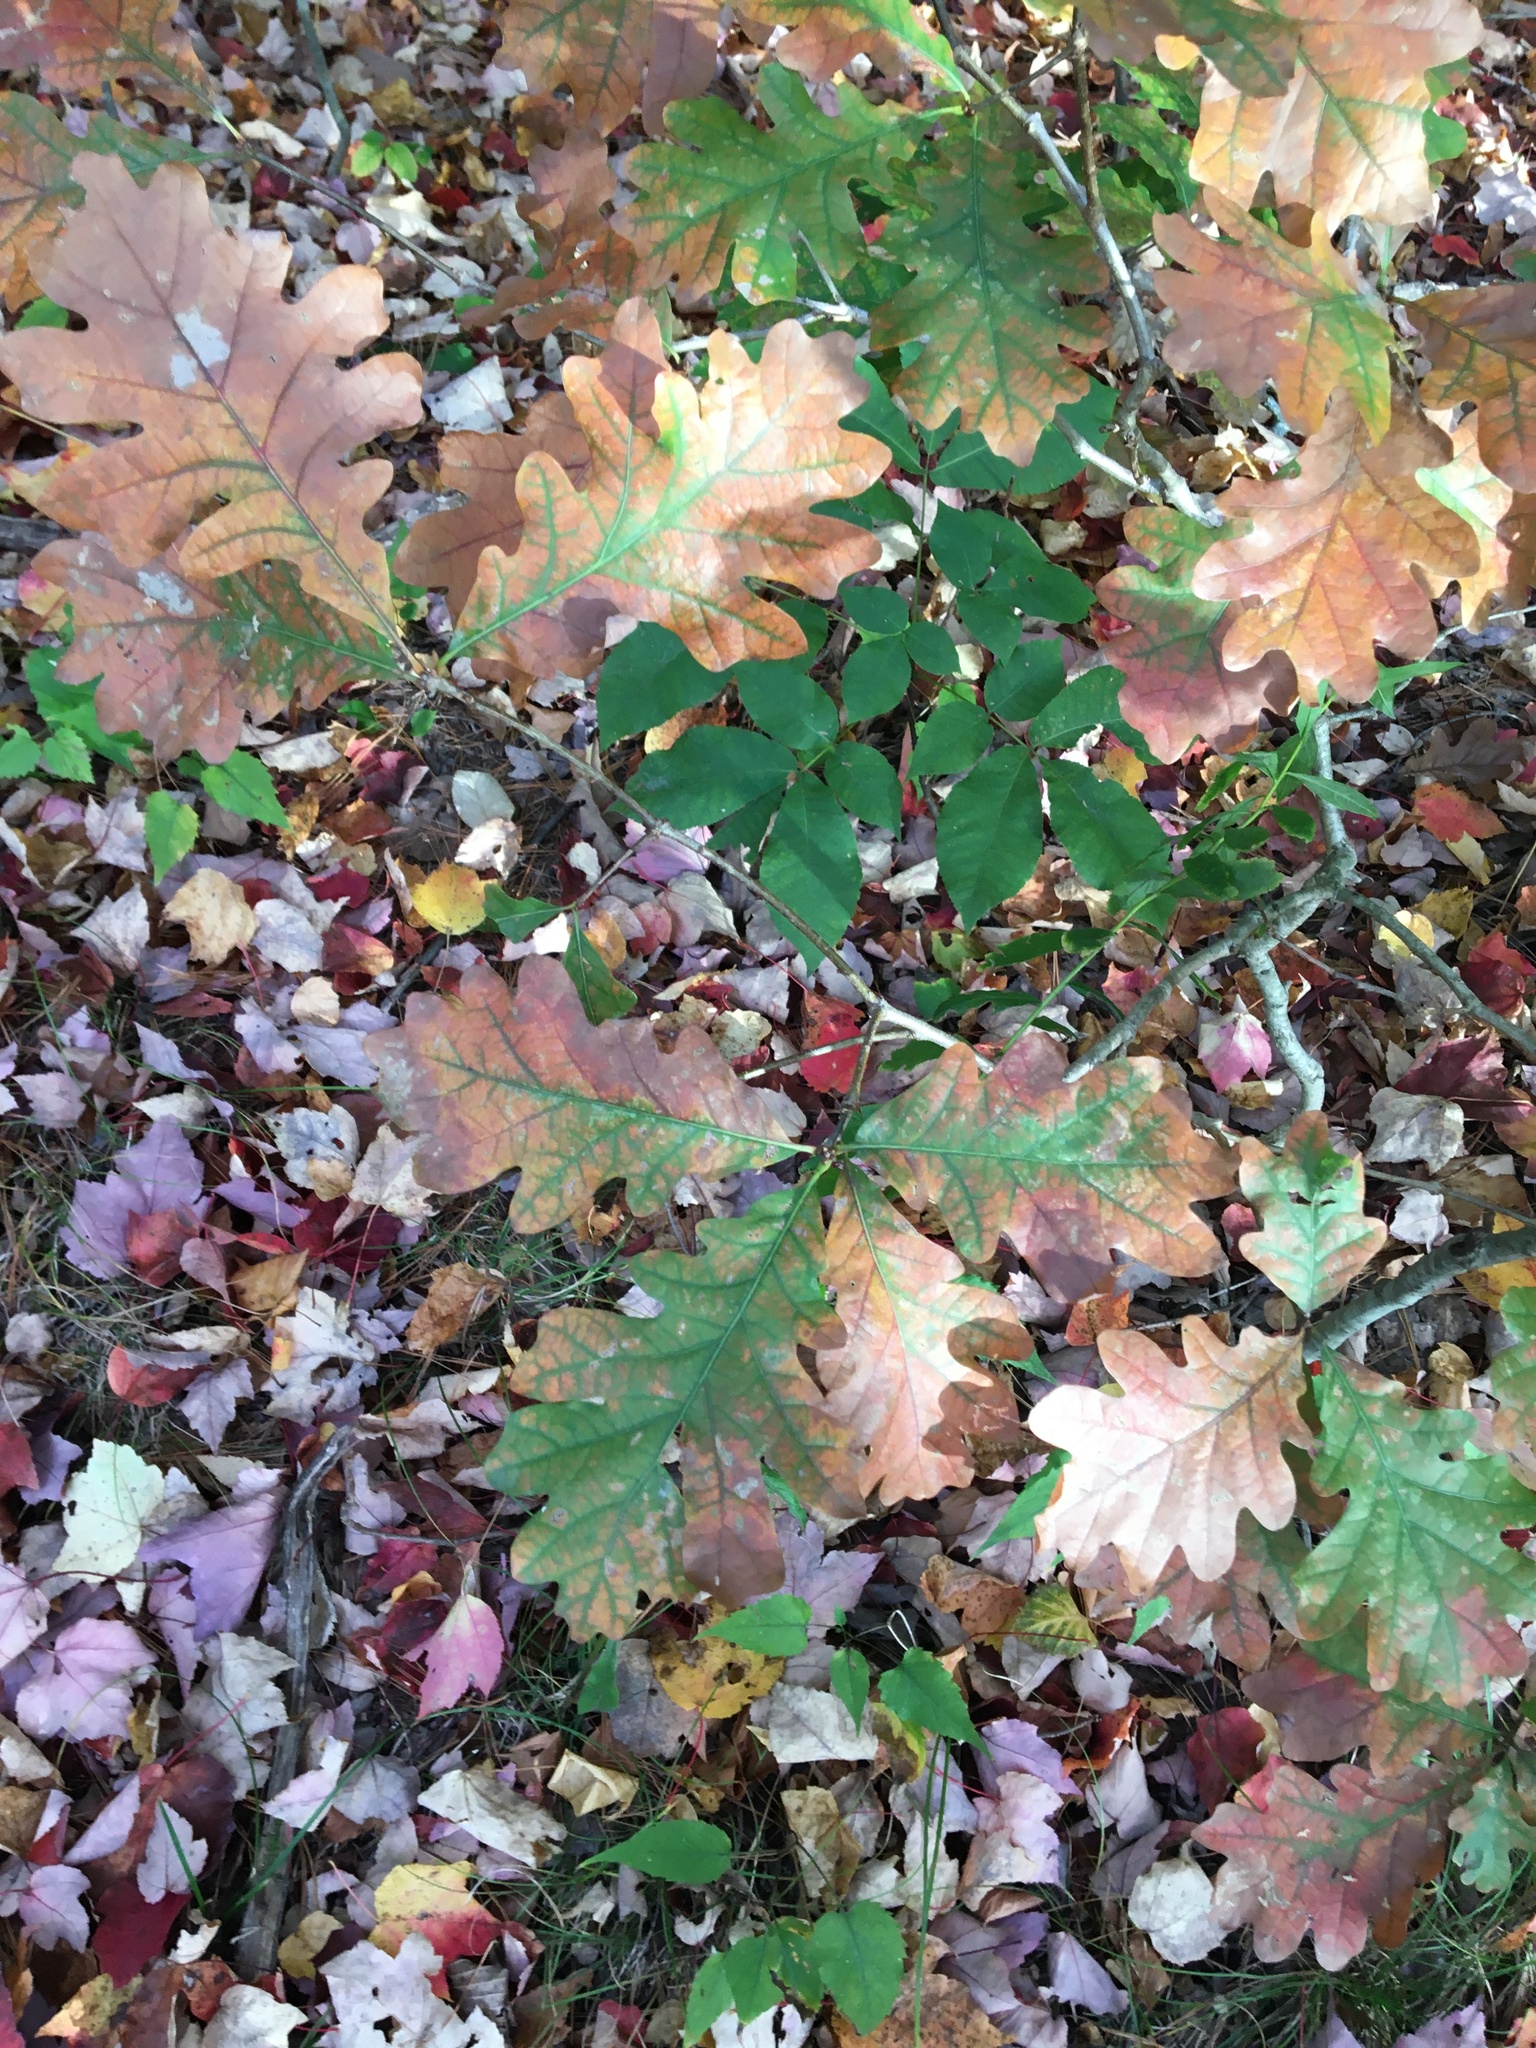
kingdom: Plantae
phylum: Tracheophyta
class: Magnoliopsida
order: Fagales
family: Fagaceae
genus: Quercus
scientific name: Quercus alba
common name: White oak
